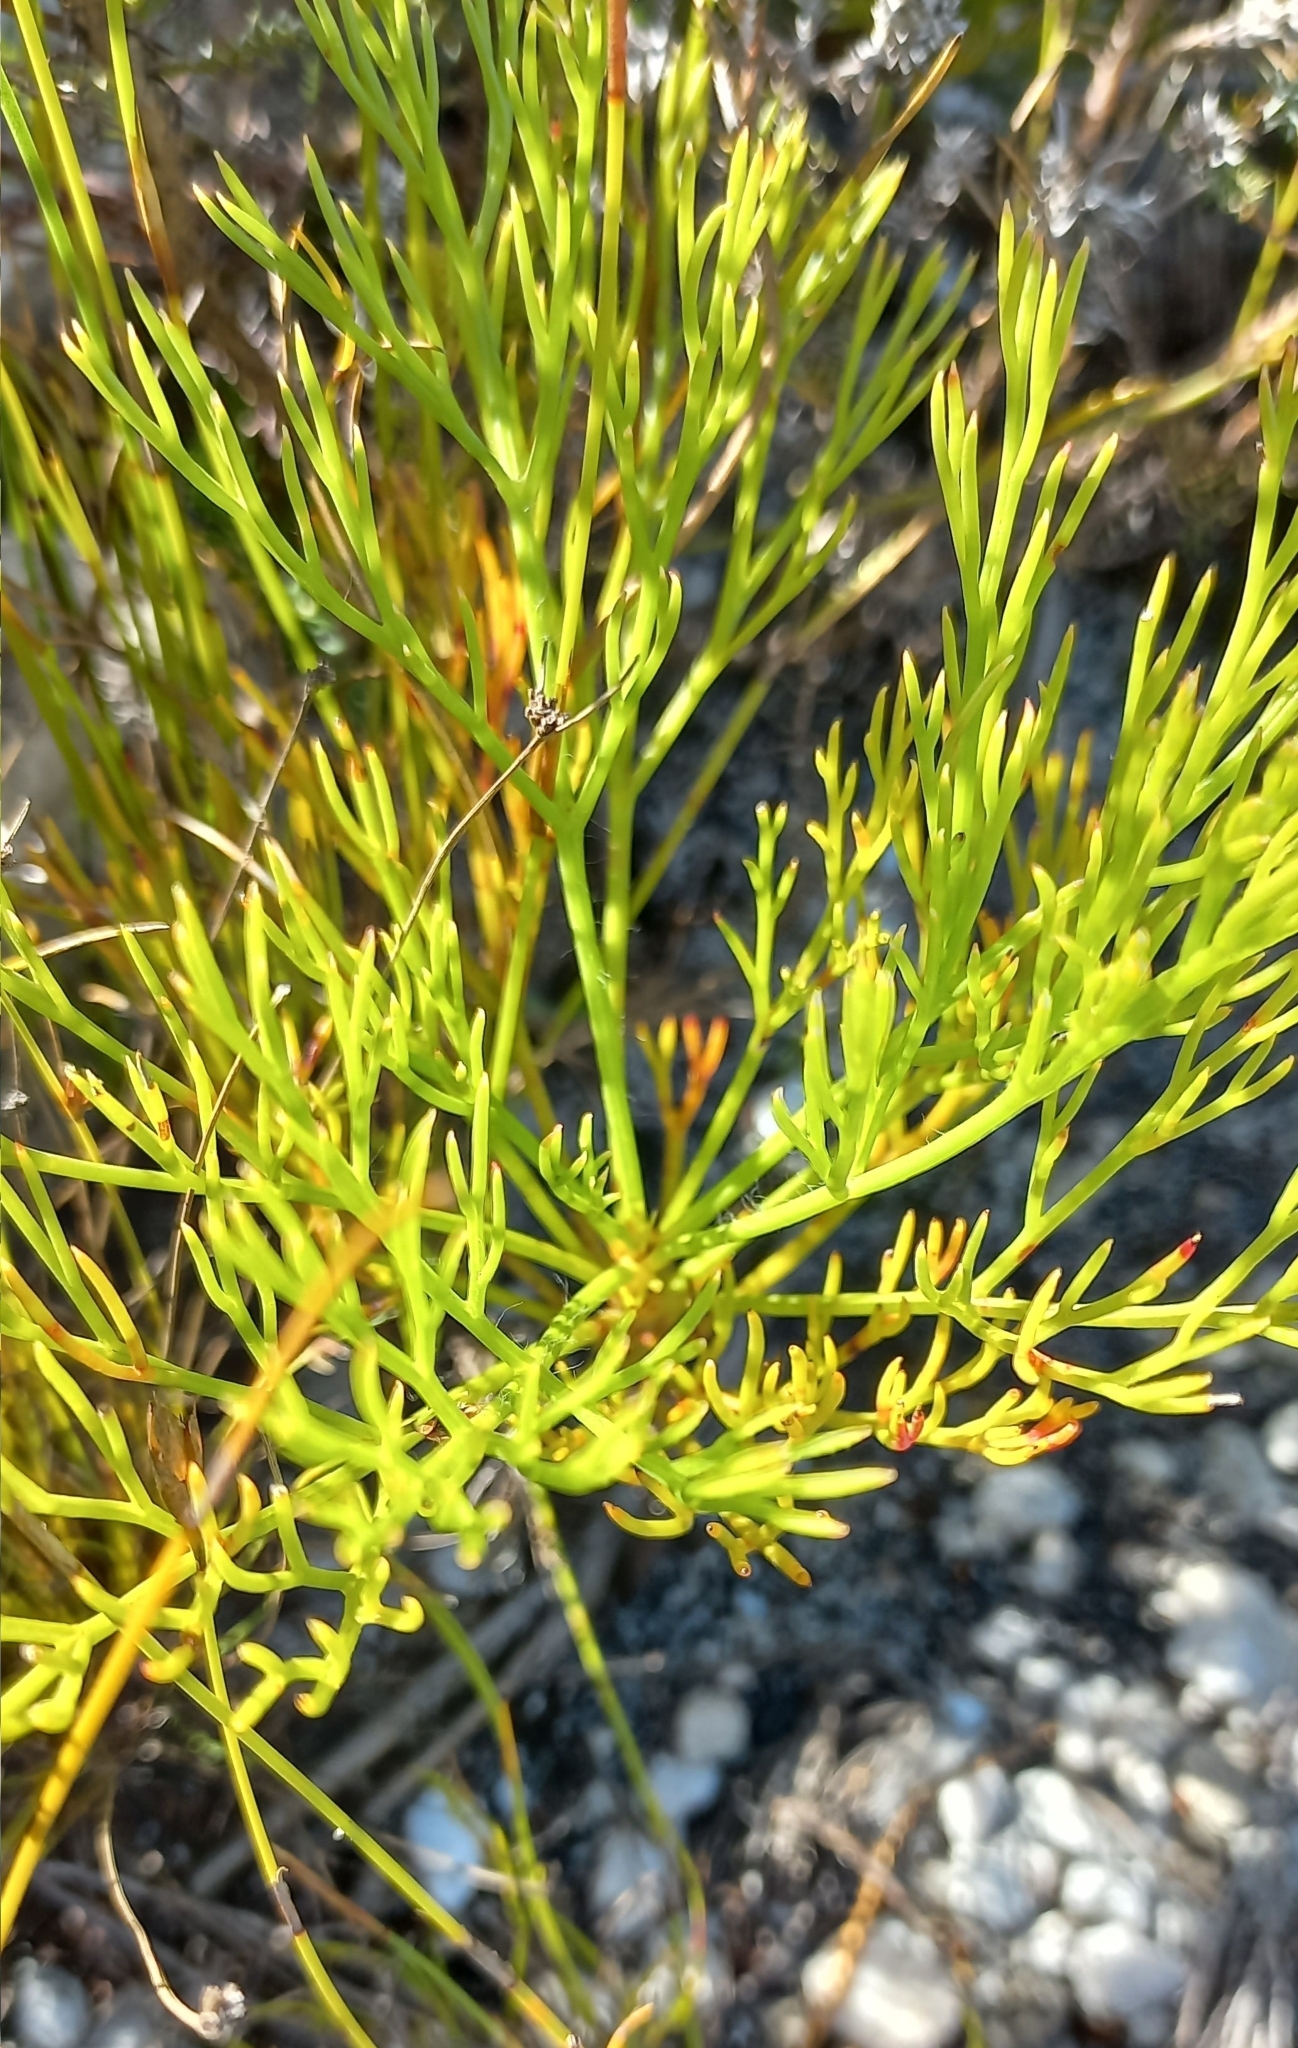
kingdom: Plantae
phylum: Tracheophyta
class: Magnoliopsida
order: Proteales
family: Proteaceae
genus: Serruria
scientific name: Serruria elongata
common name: Long-stalk spiderhead
